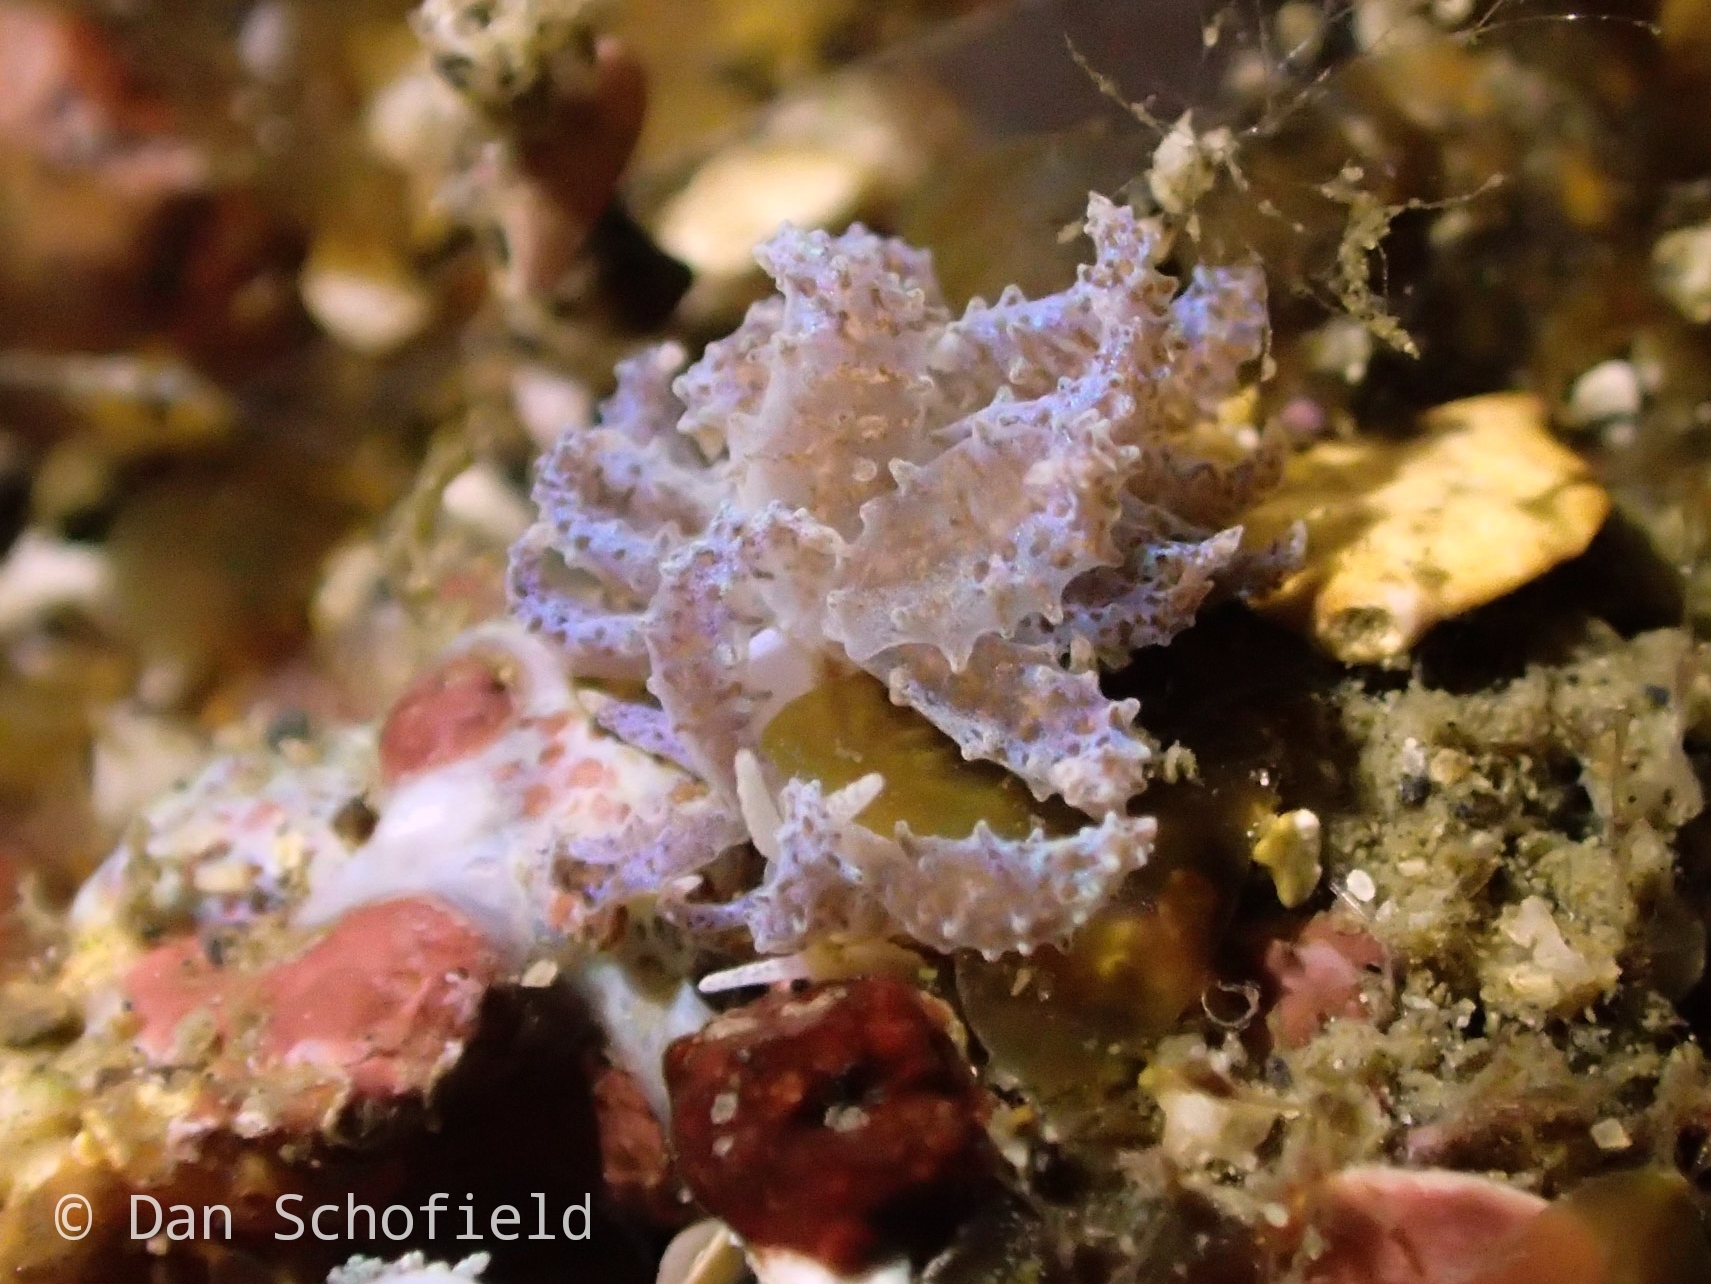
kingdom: Animalia
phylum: Mollusca
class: Gastropoda
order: Nudibranchia
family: Myrrhinidae
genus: Phyllodesmium
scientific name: Phyllodesmium crypticum
